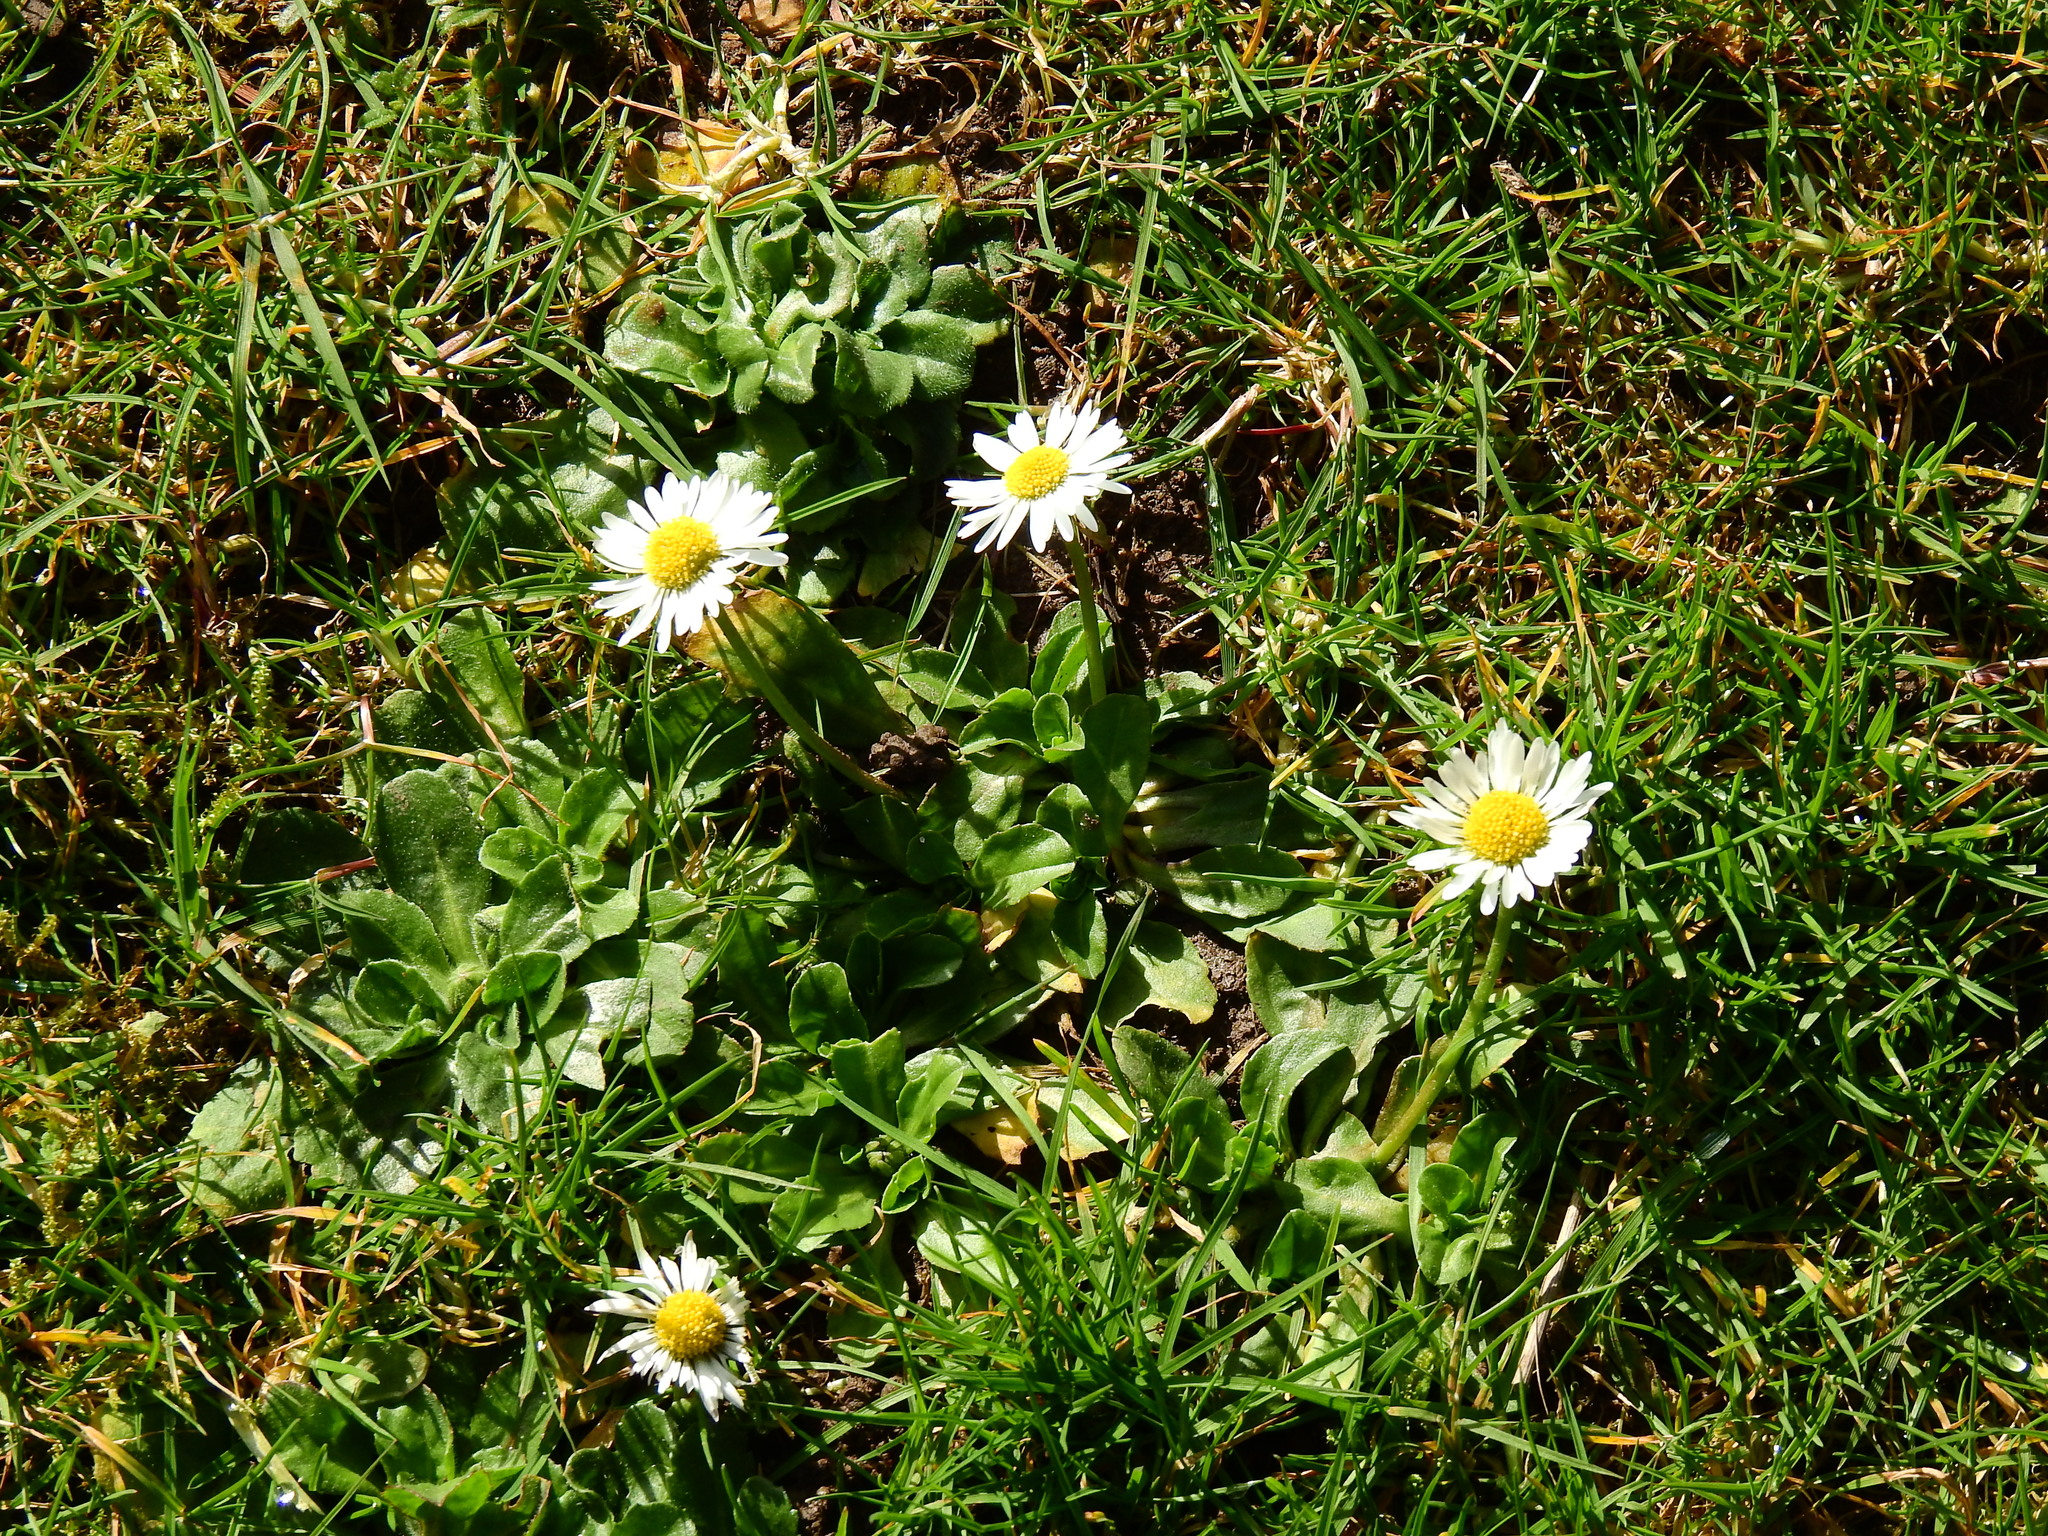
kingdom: Plantae
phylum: Tracheophyta
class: Magnoliopsida
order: Asterales
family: Asteraceae
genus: Bellis
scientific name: Bellis perennis
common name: Lawndaisy
